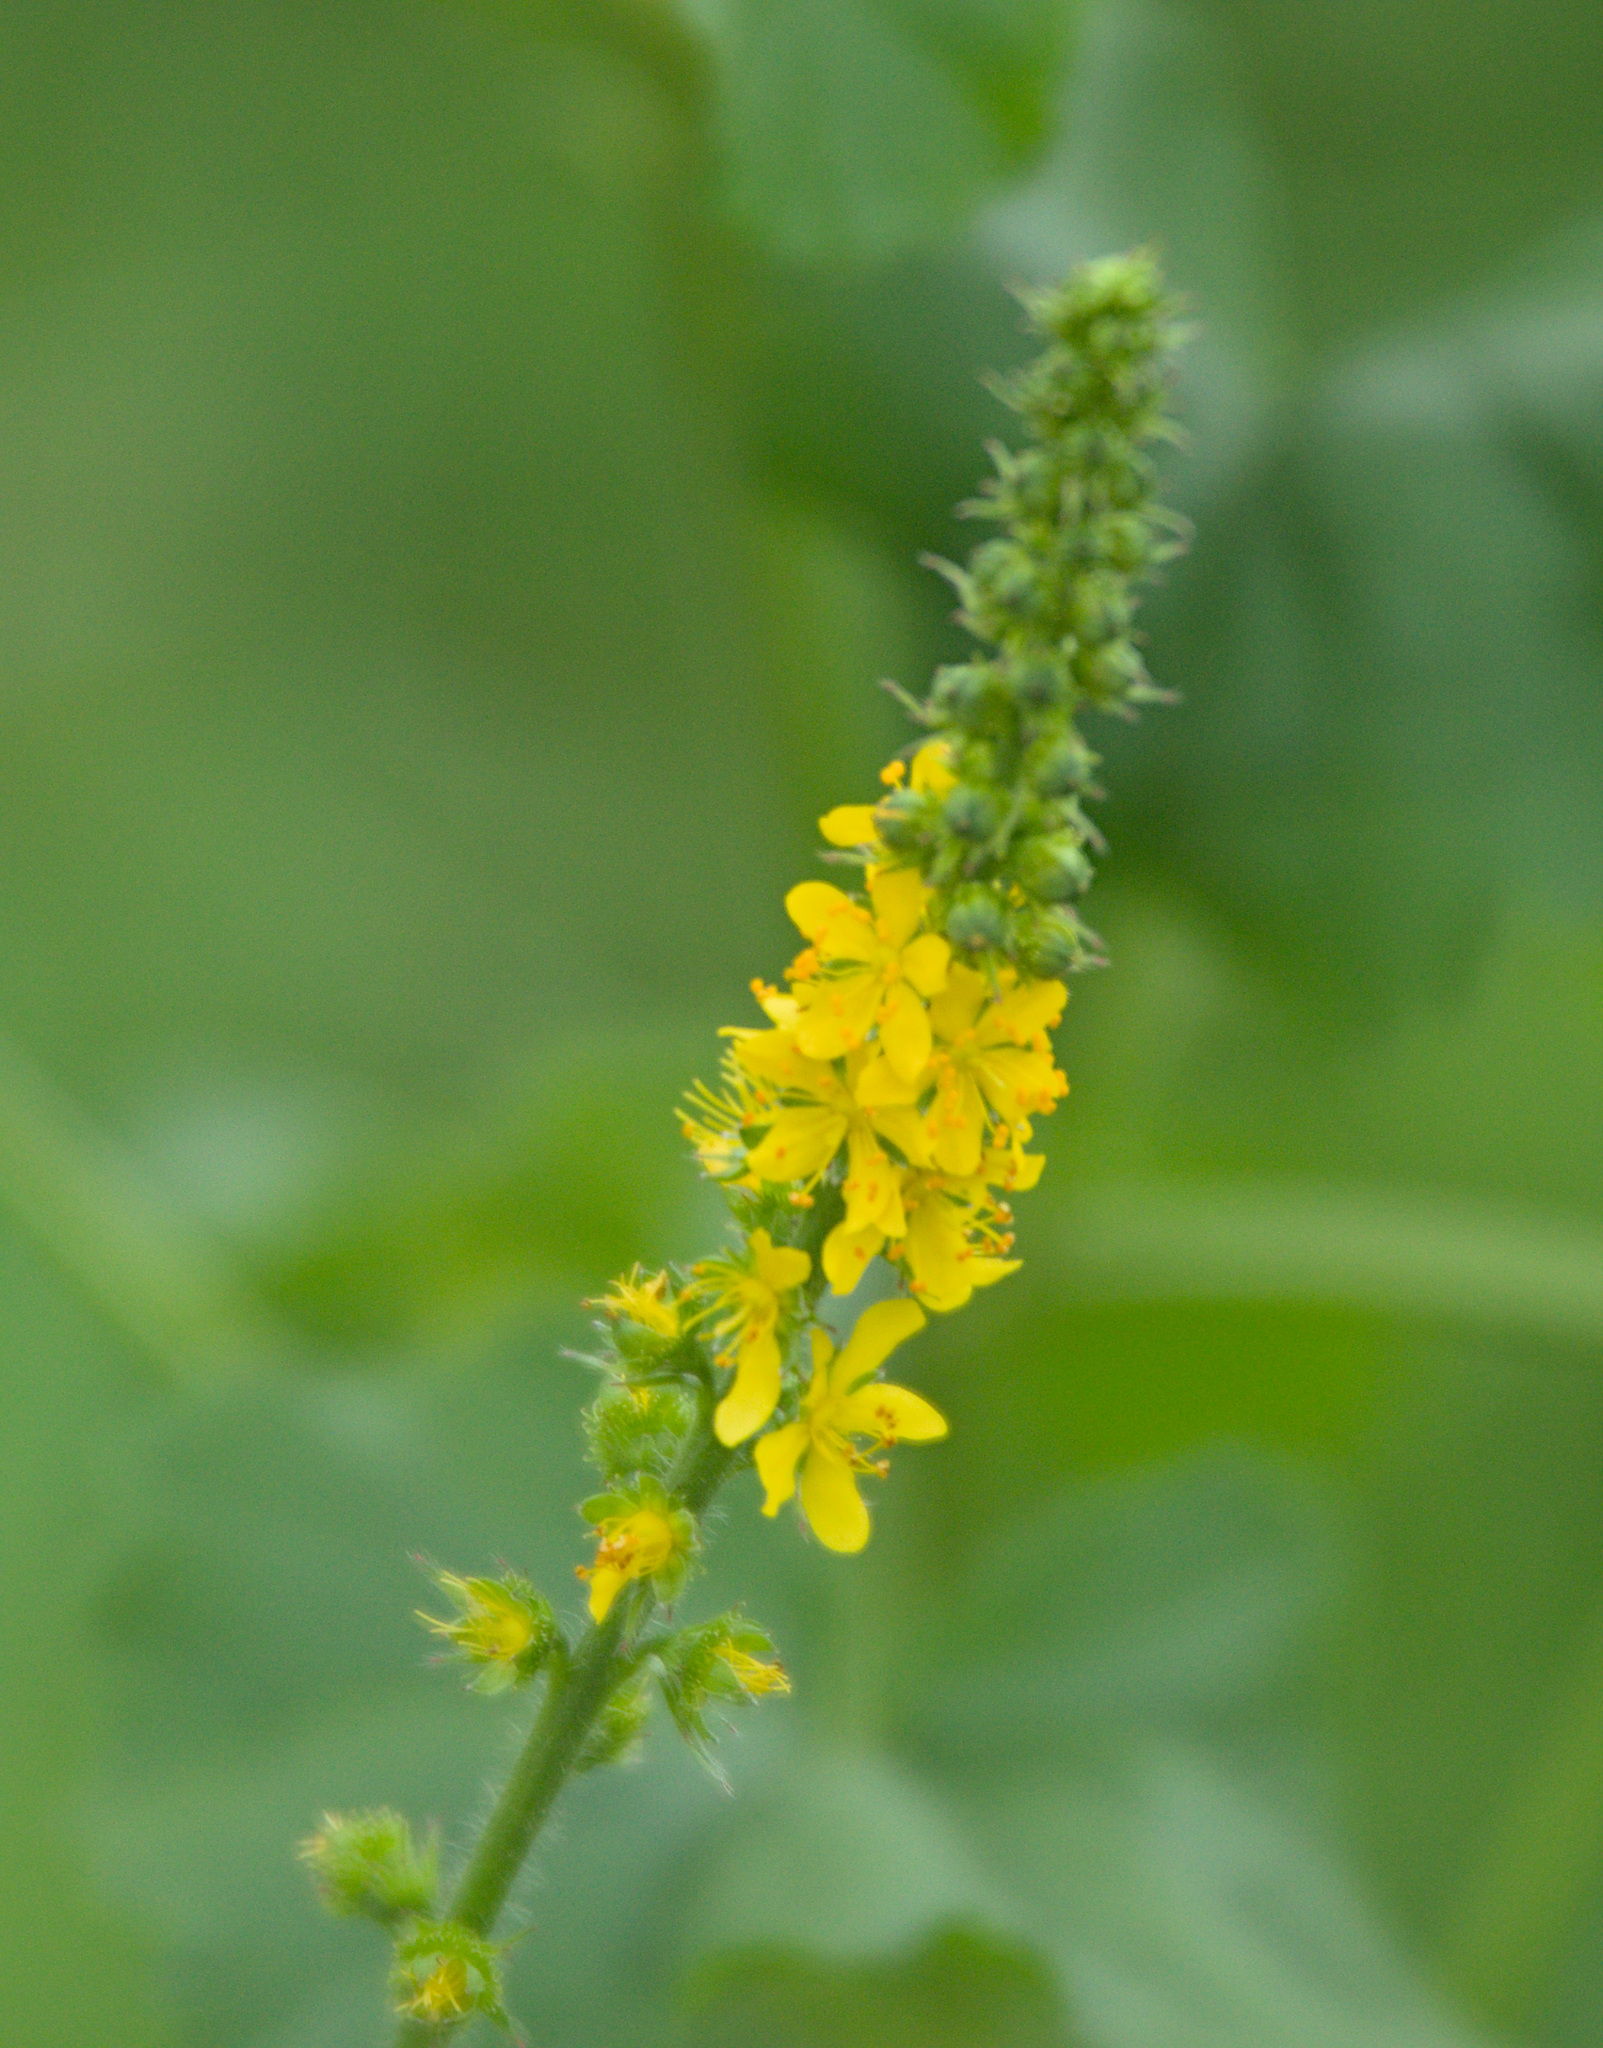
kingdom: Plantae
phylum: Tracheophyta
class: Magnoliopsida
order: Rosales
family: Rosaceae
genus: Agrimonia
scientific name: Agrimonia pilosa
